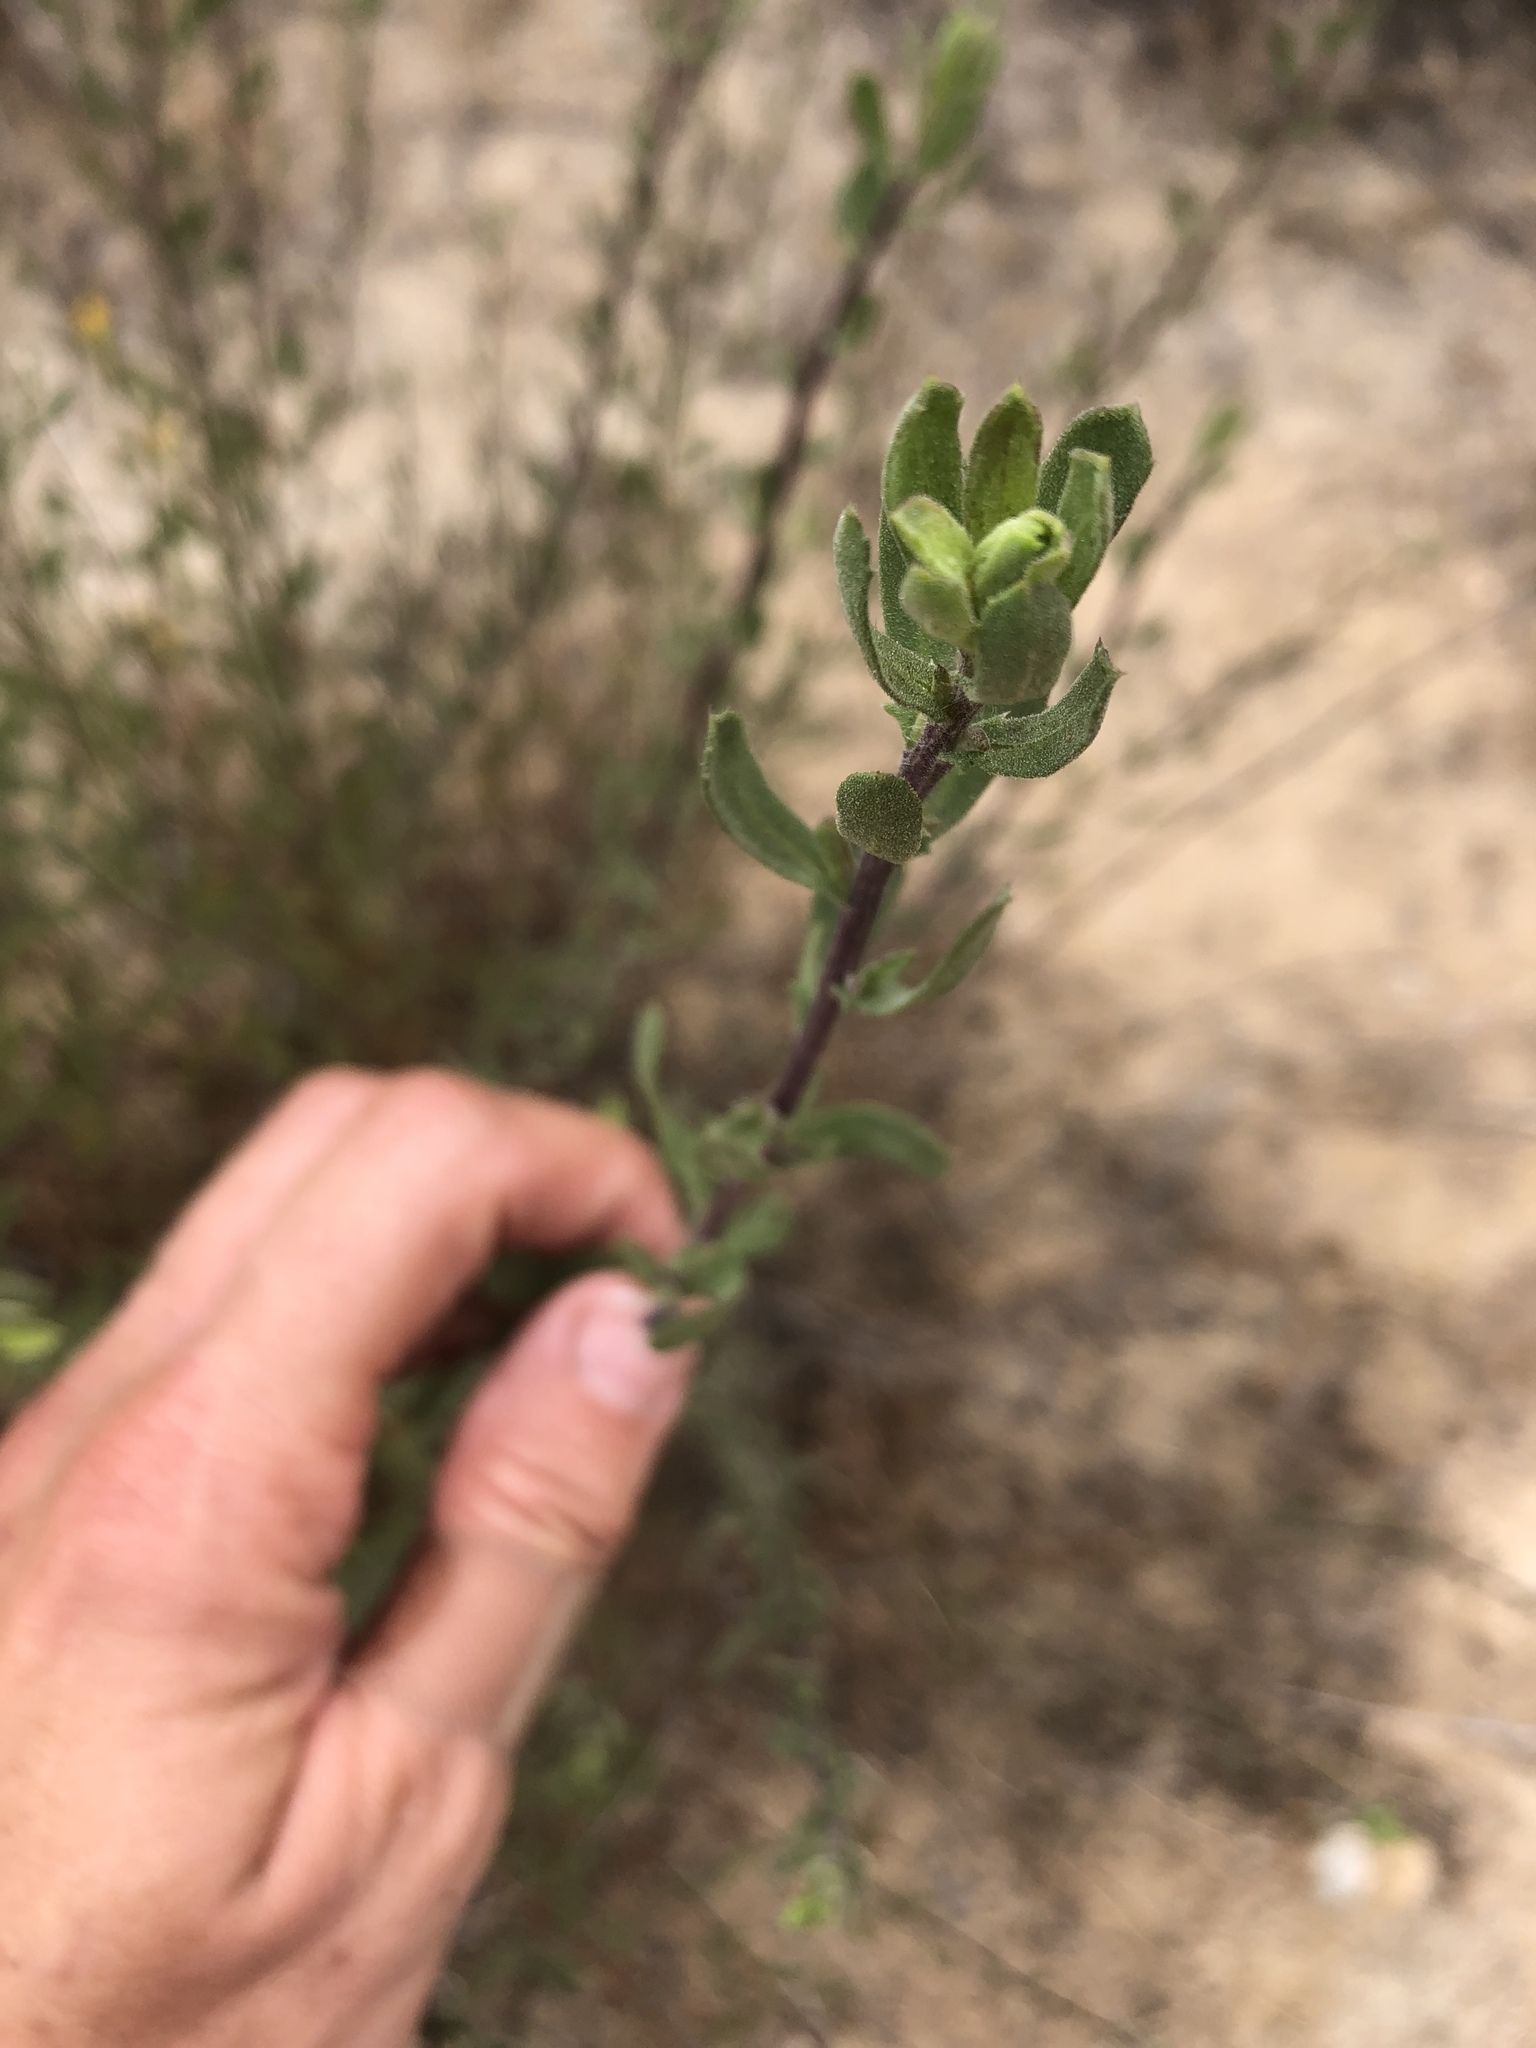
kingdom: Plantae
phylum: Tracheophyta
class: Magnoliopsida
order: Asterales
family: Asteraceae
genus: Isocoma
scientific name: Isocoma menziesii
